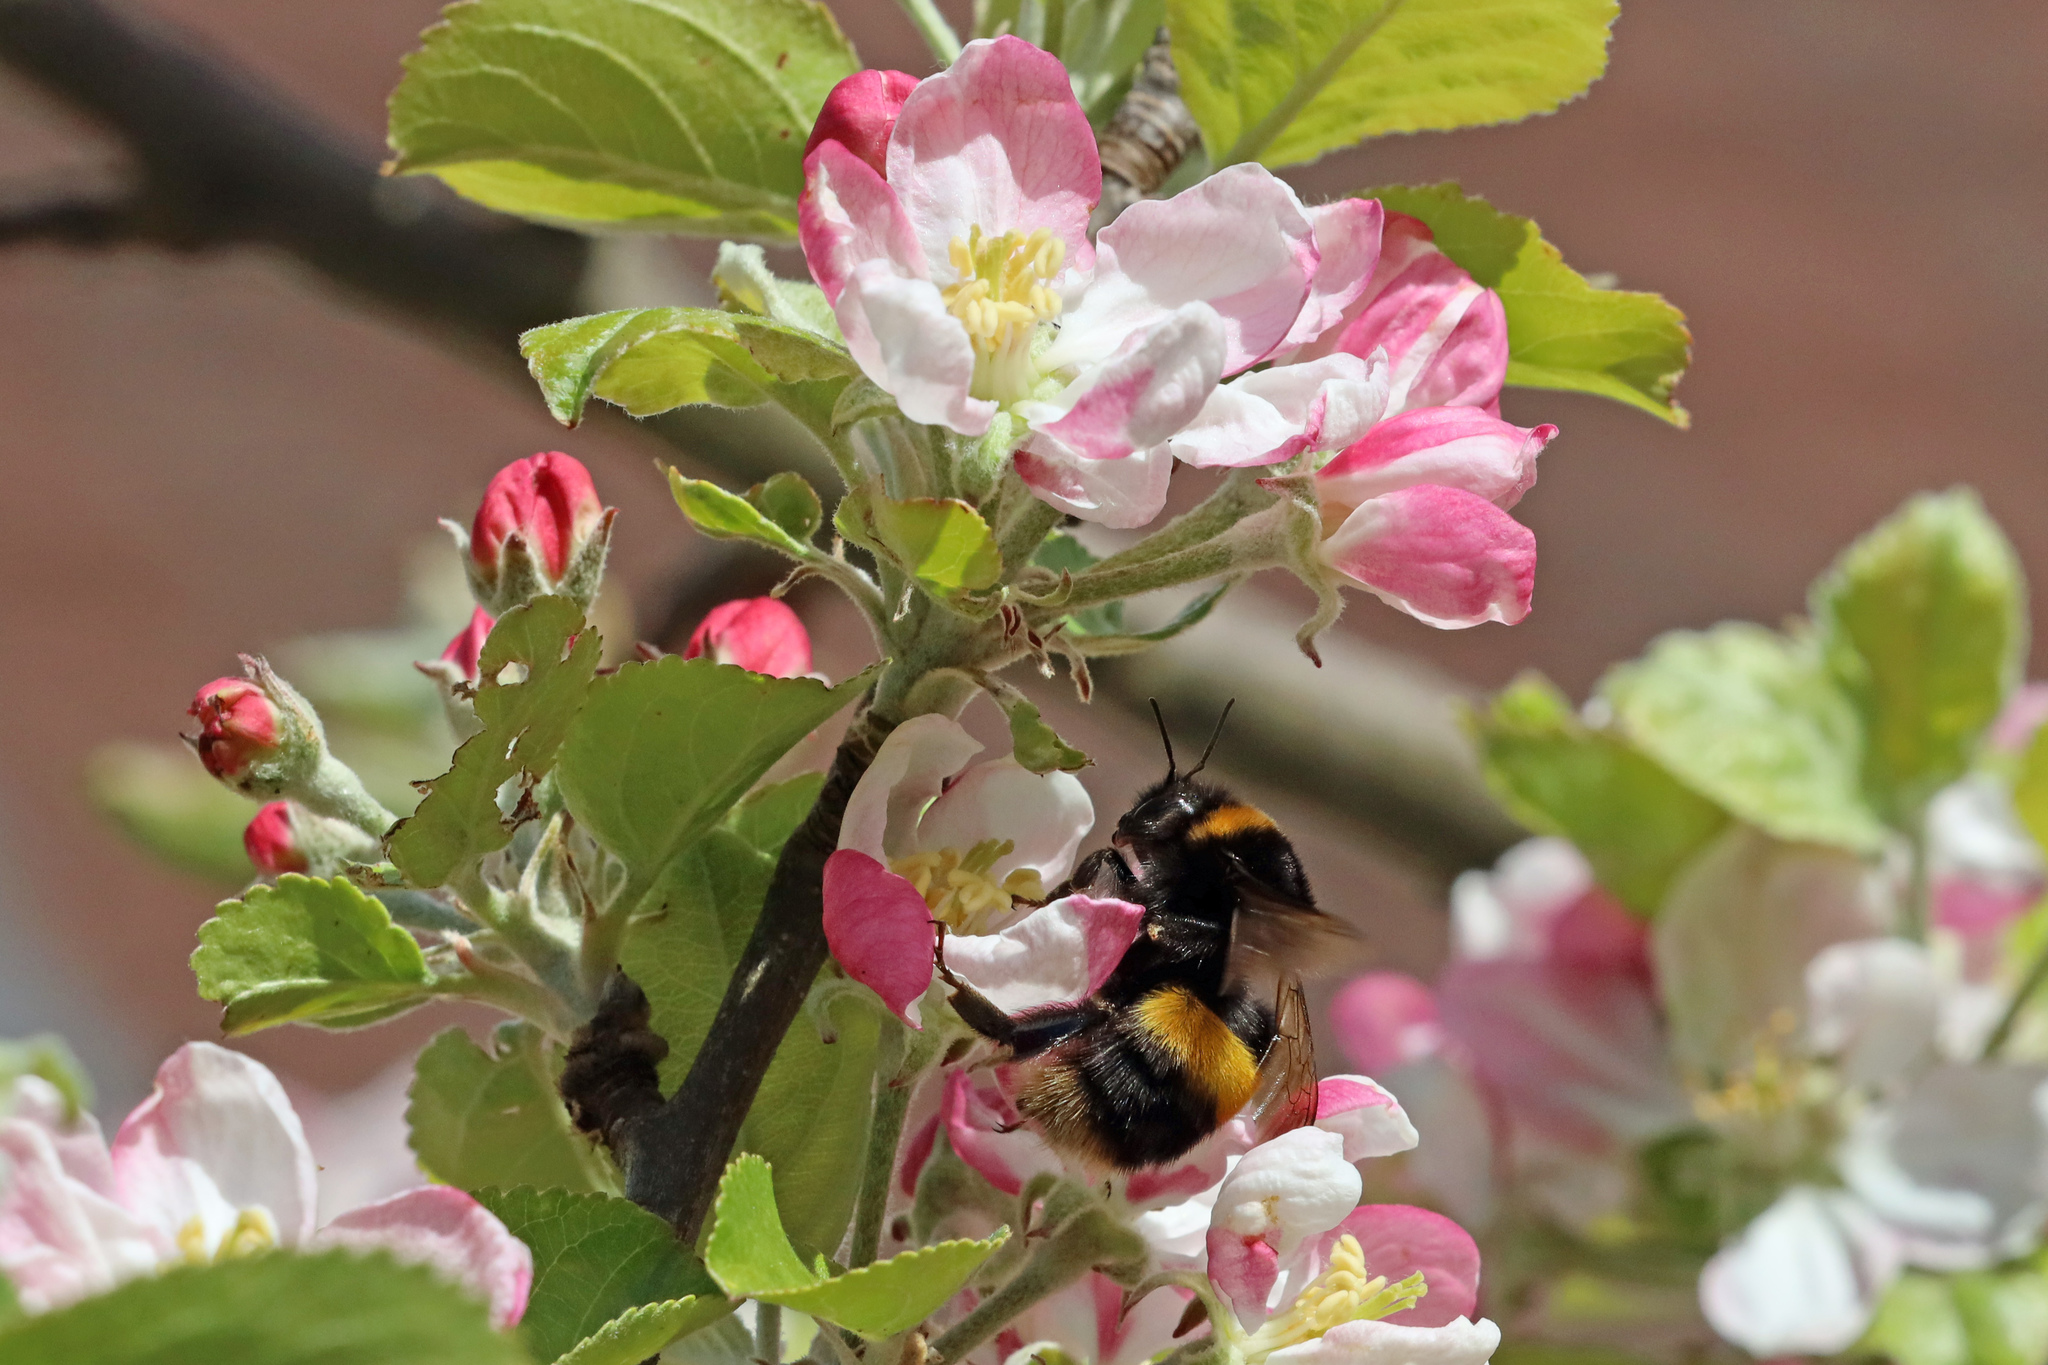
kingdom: Animalia
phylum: Arthropoda
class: Insecta
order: Hymenoptera
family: Apidae
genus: Bombus
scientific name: Bombus terrestris
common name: Buff-tailed bumblebee
